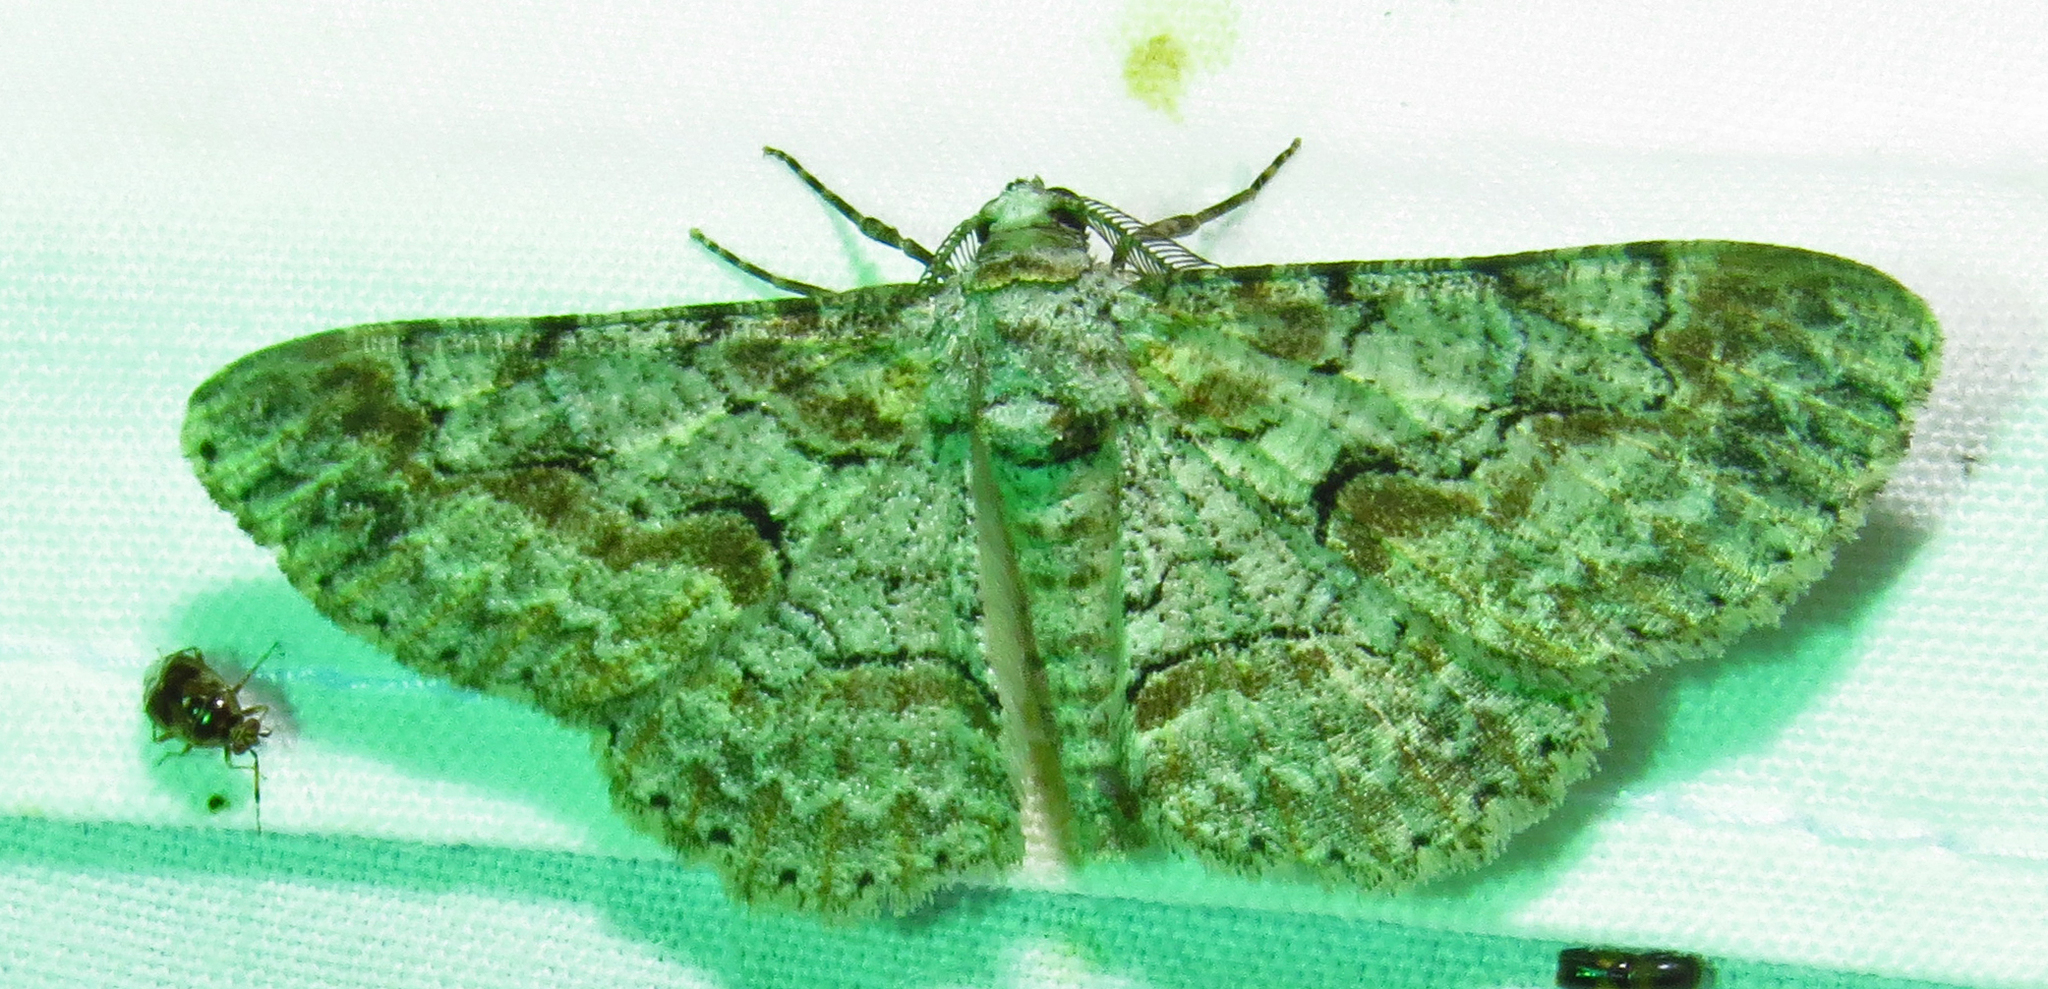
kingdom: Animalia
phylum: Arthropoda
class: Insecta
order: Lepidoptera
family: Geometridae
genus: Iridopsis
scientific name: Iridopsis defectaria
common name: Brown-shaded gray
